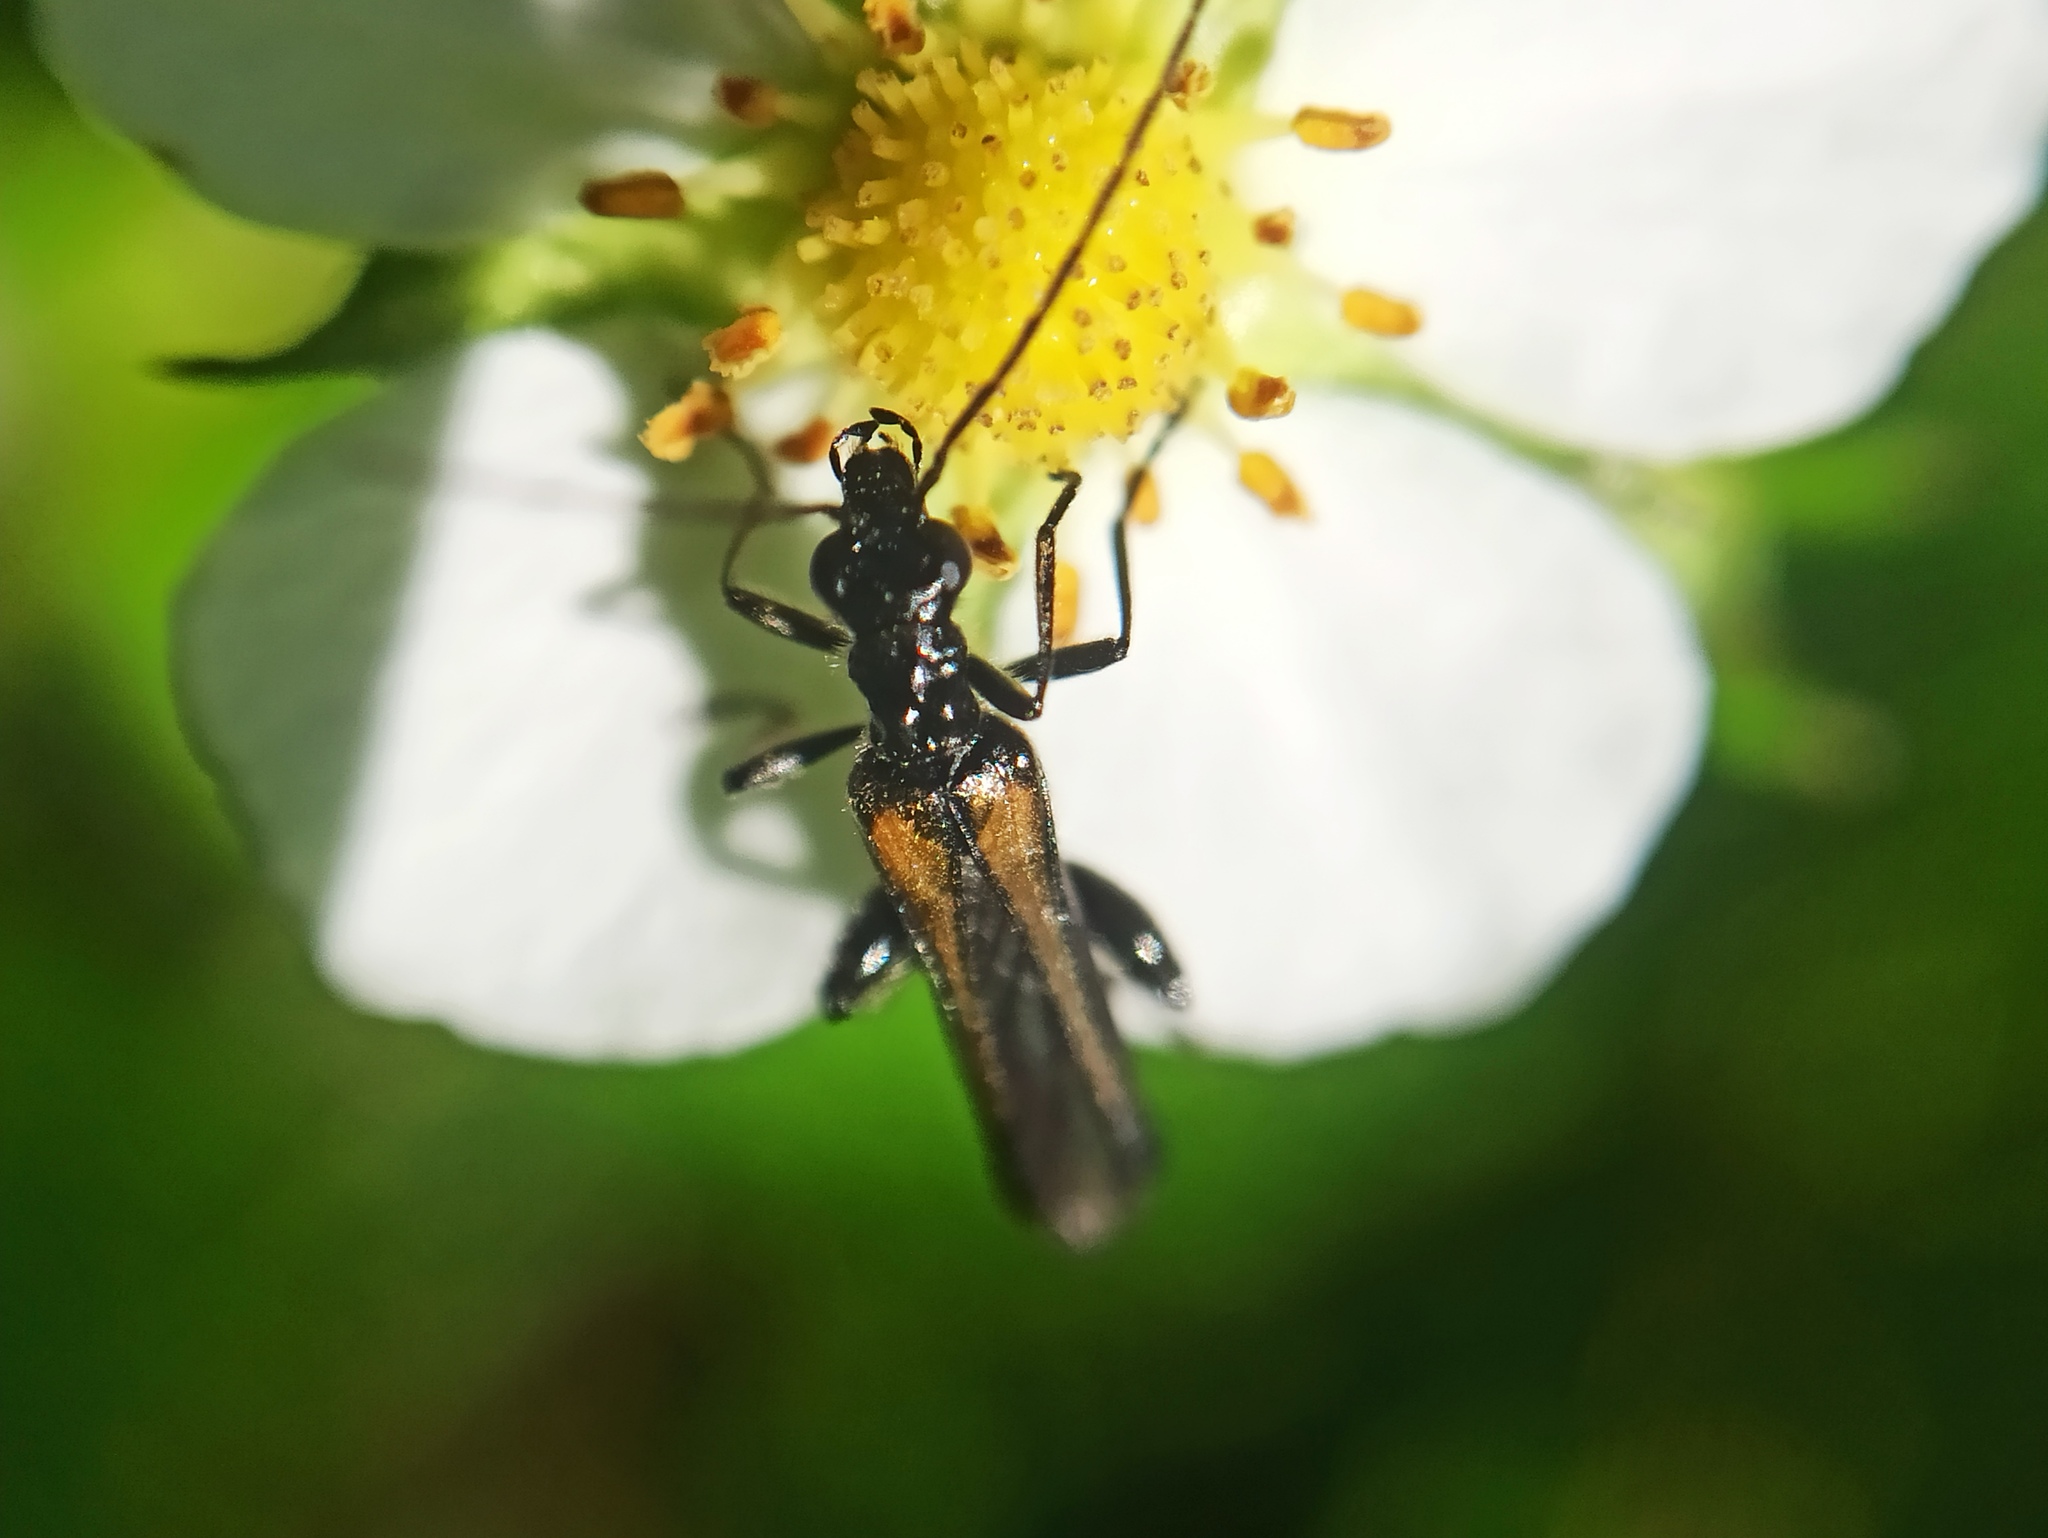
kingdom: Animalia
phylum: Arthropoda
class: Insecta
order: Coleoptera
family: Oedemeridae
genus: Oedemera
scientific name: Oedemera pthysica
